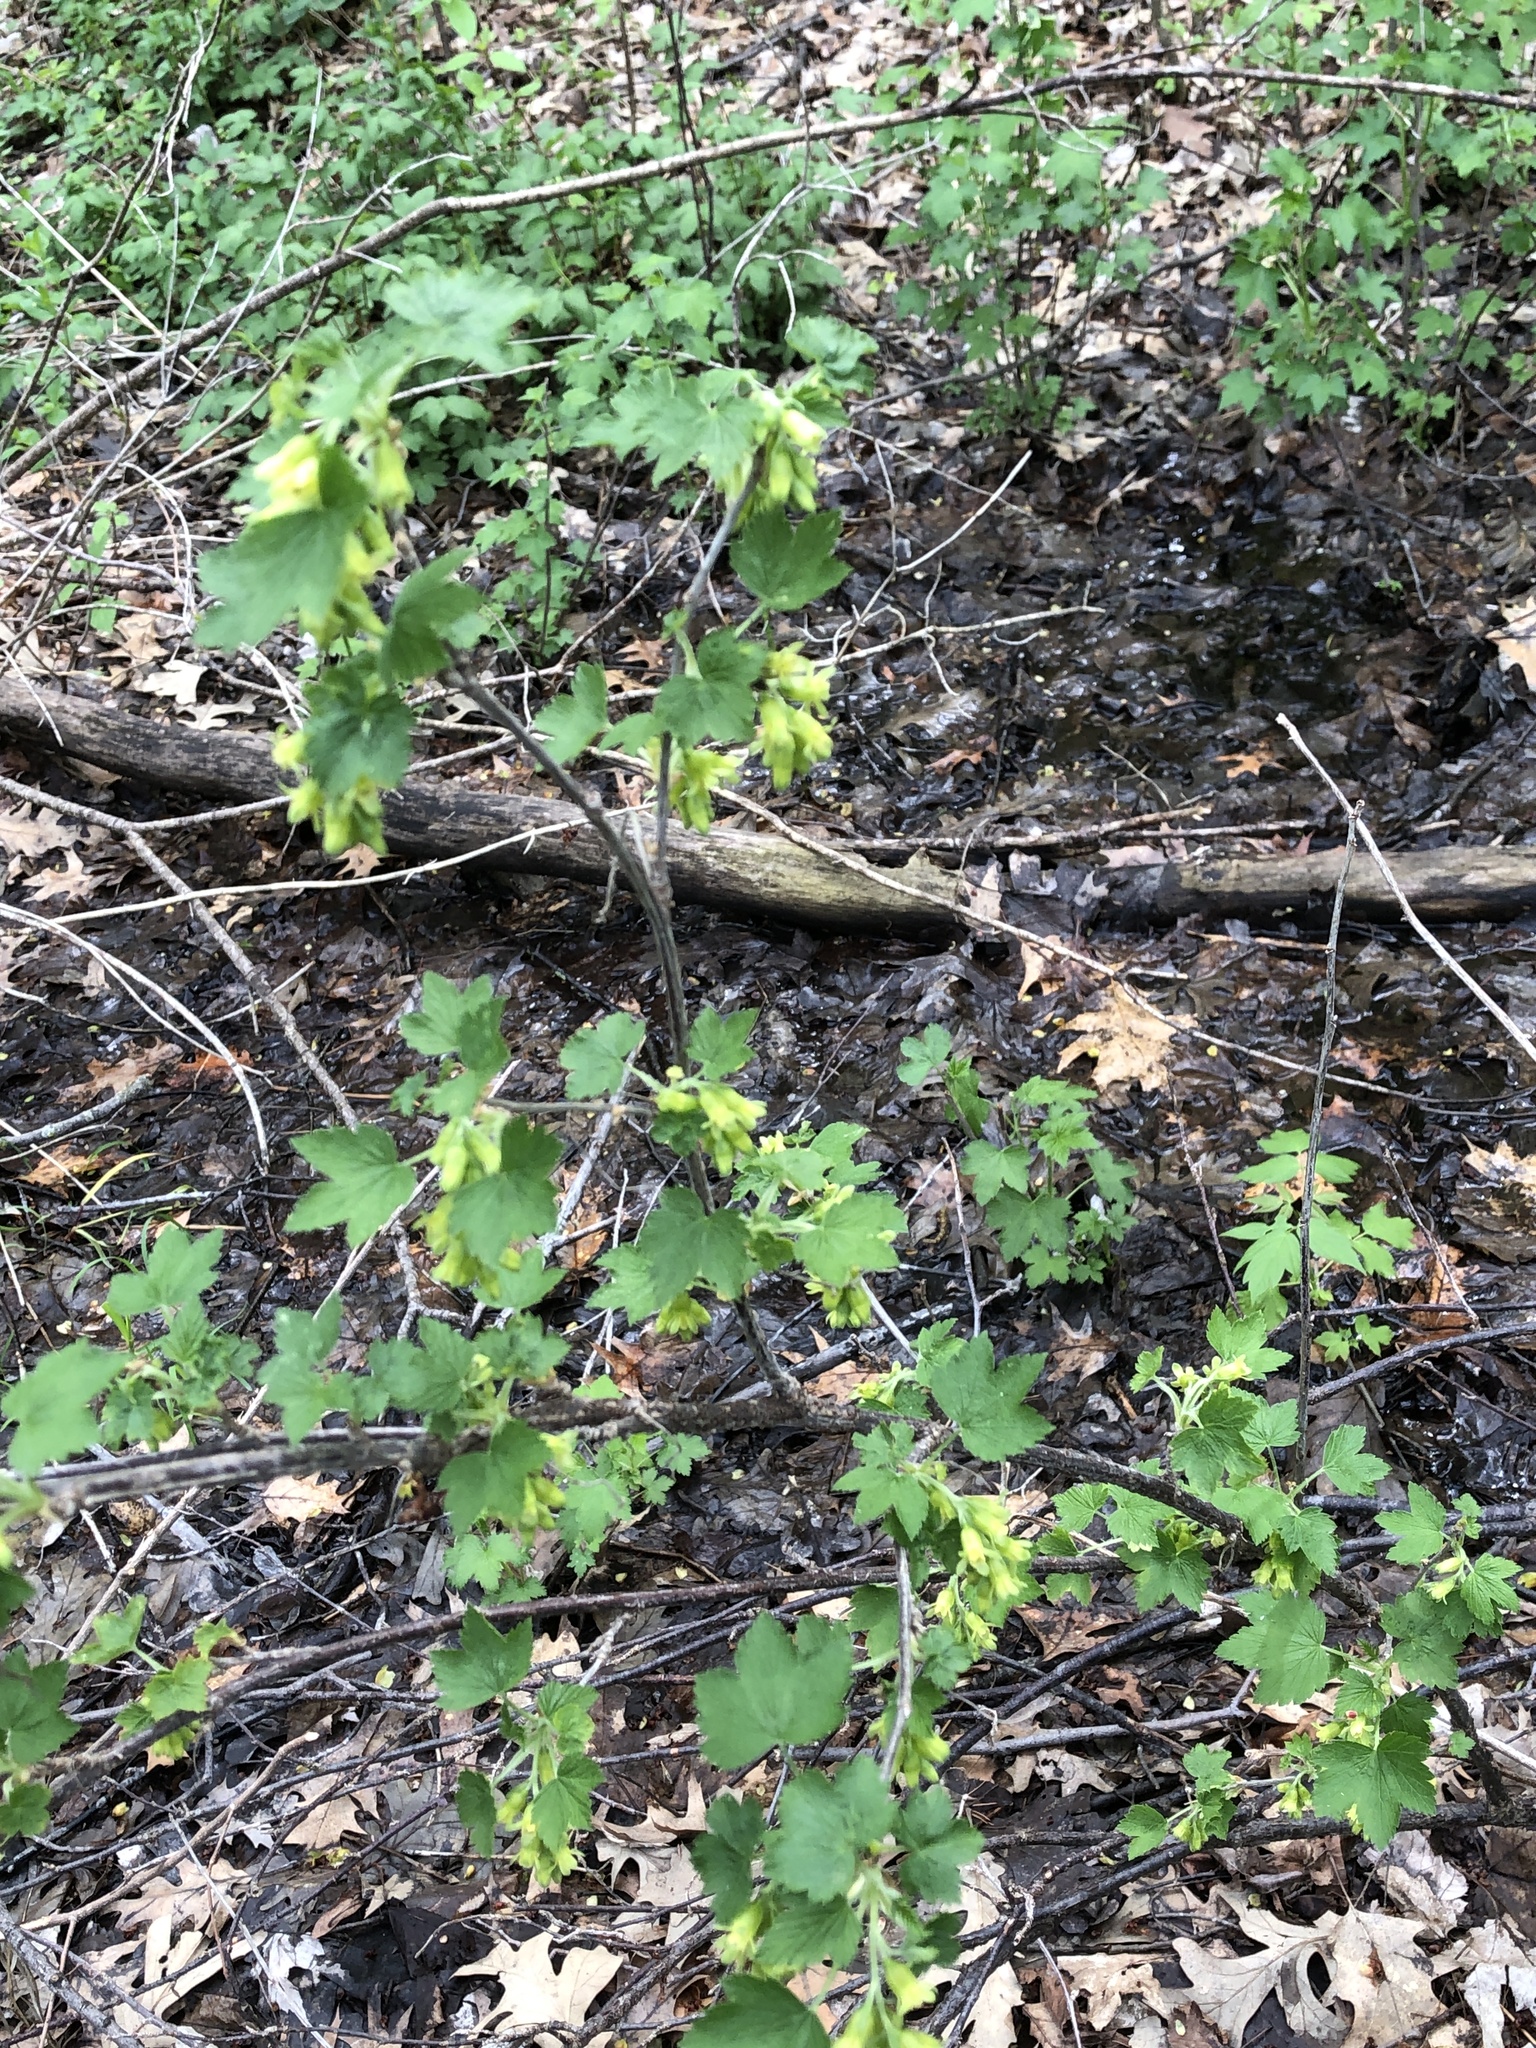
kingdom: Plantae
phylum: Tracheophyta
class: Magnoliopsida
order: Saxifragales
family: Grossulariaceae
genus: Ribes
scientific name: Ribes americanum
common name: American black currant
